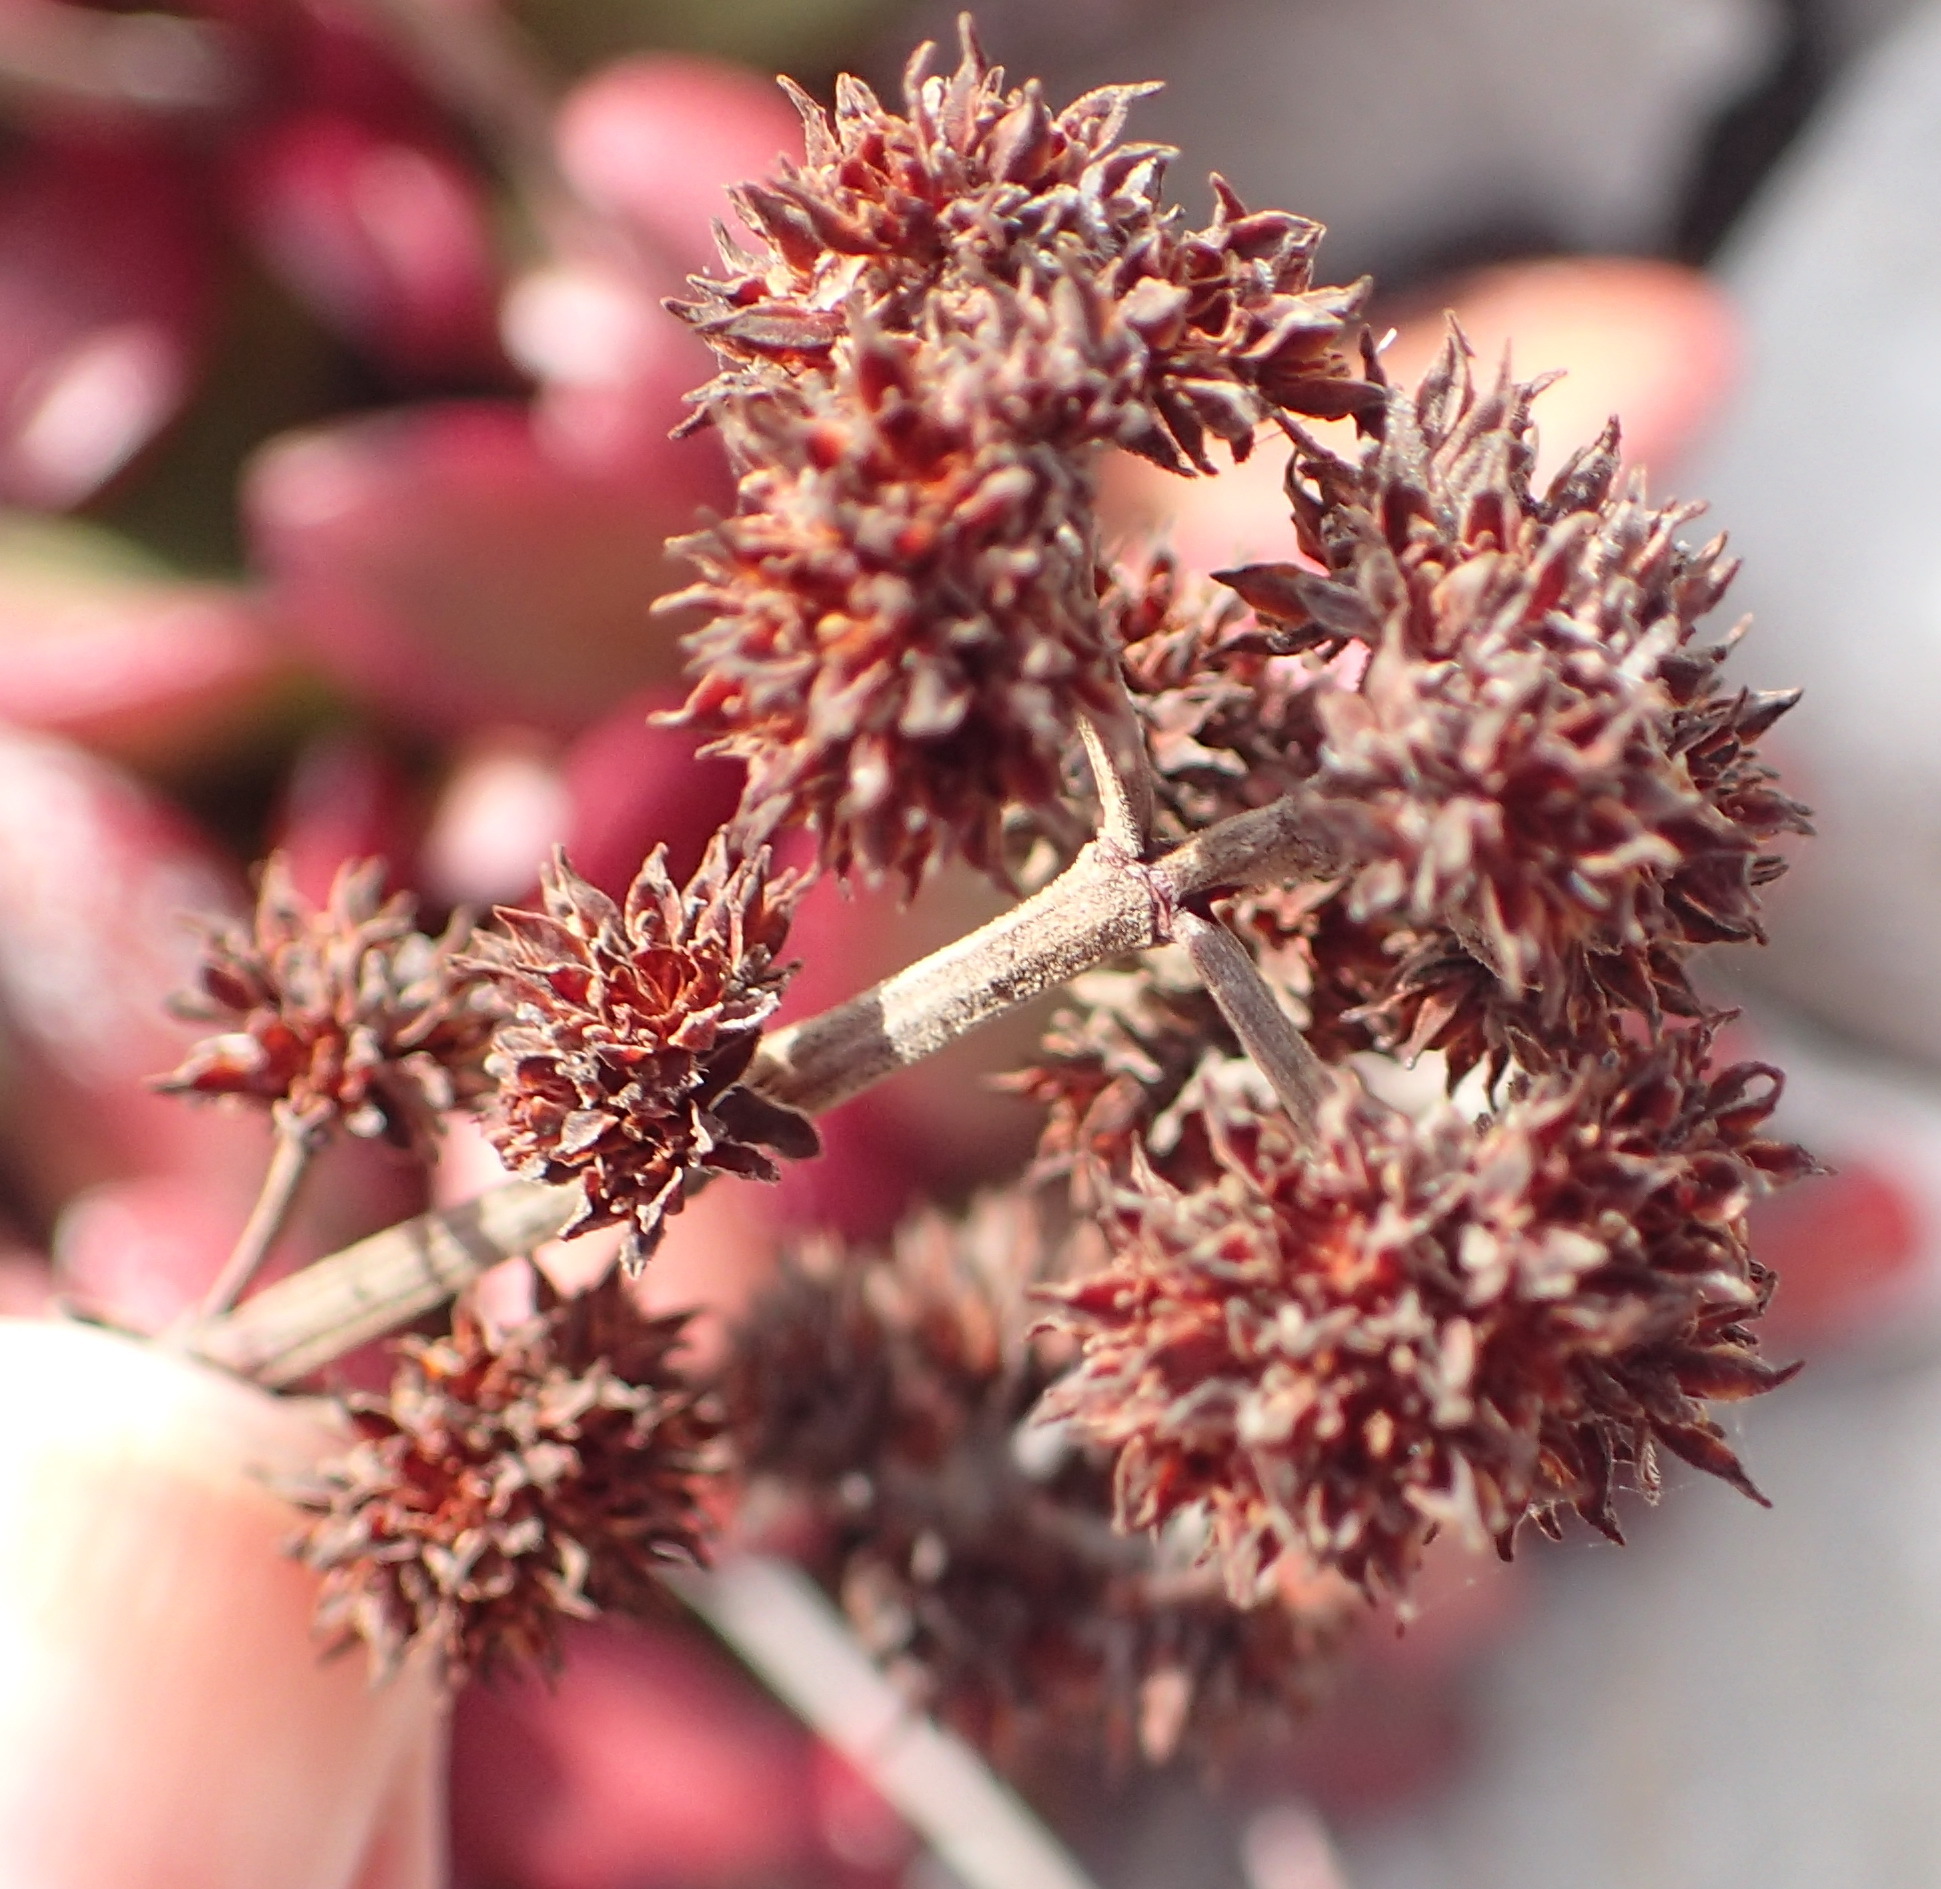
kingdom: Plantae
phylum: Tracheophyta
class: Magnoliopsida
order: Saxifragales
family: Crassulaceae
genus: Crassula
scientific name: Crassula nudicaulis
